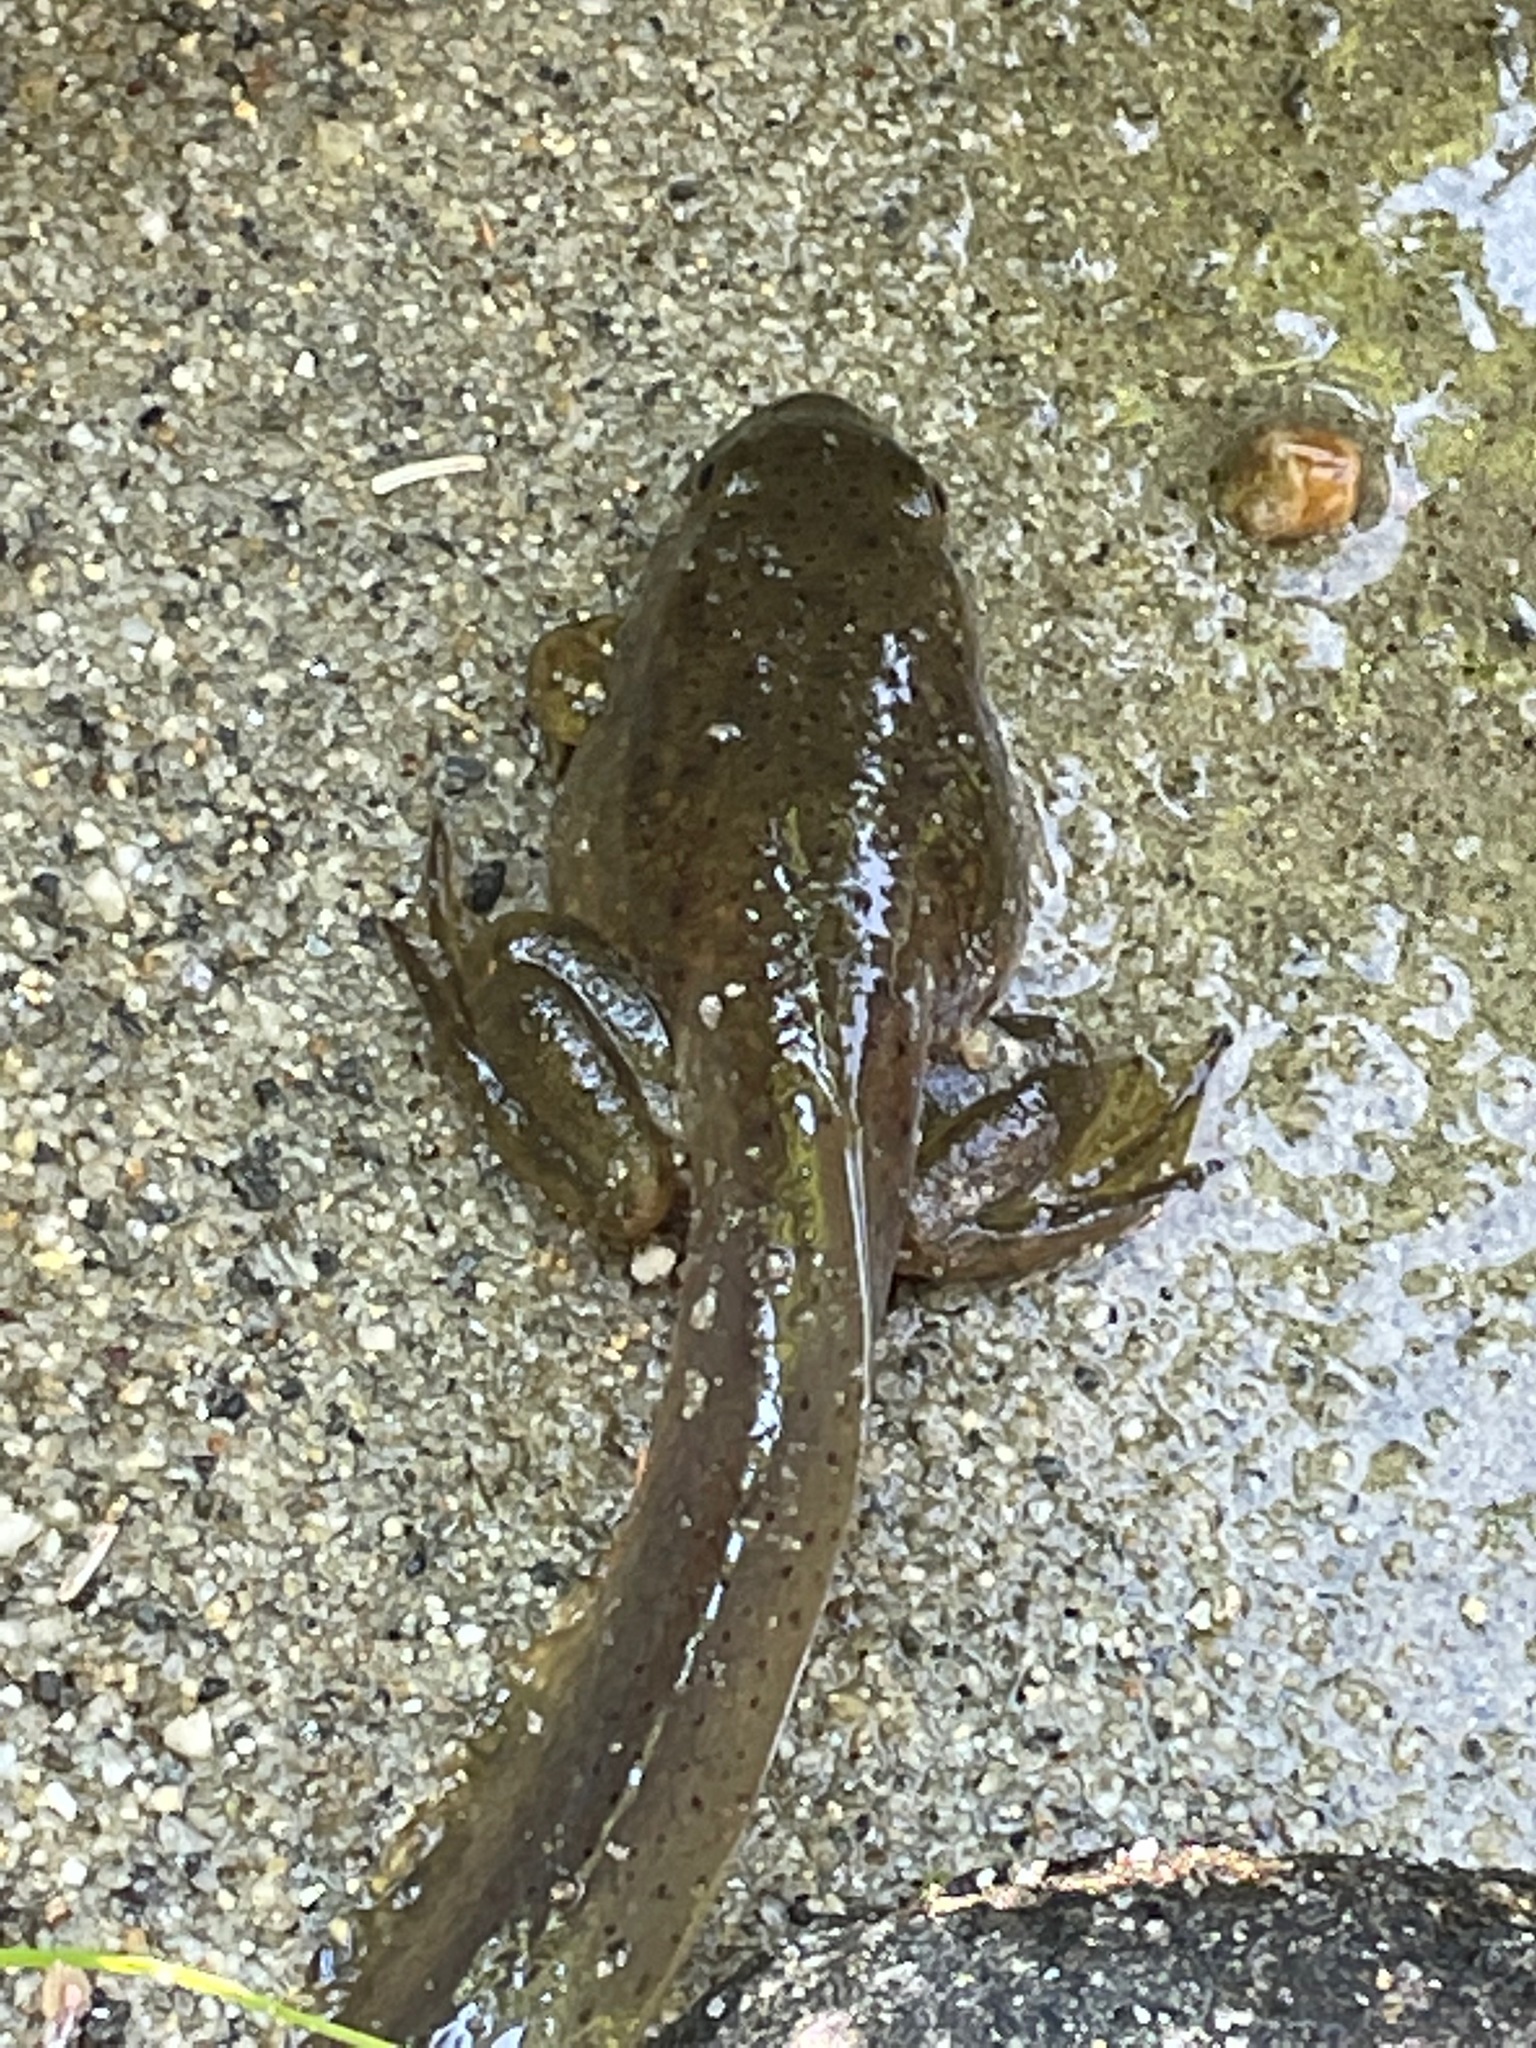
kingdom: Animalia
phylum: Chordata
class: Amphibia
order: Anura
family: Ranidae
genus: Lithobates
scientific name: Lithobates catesbeianus
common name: American bullfrog
